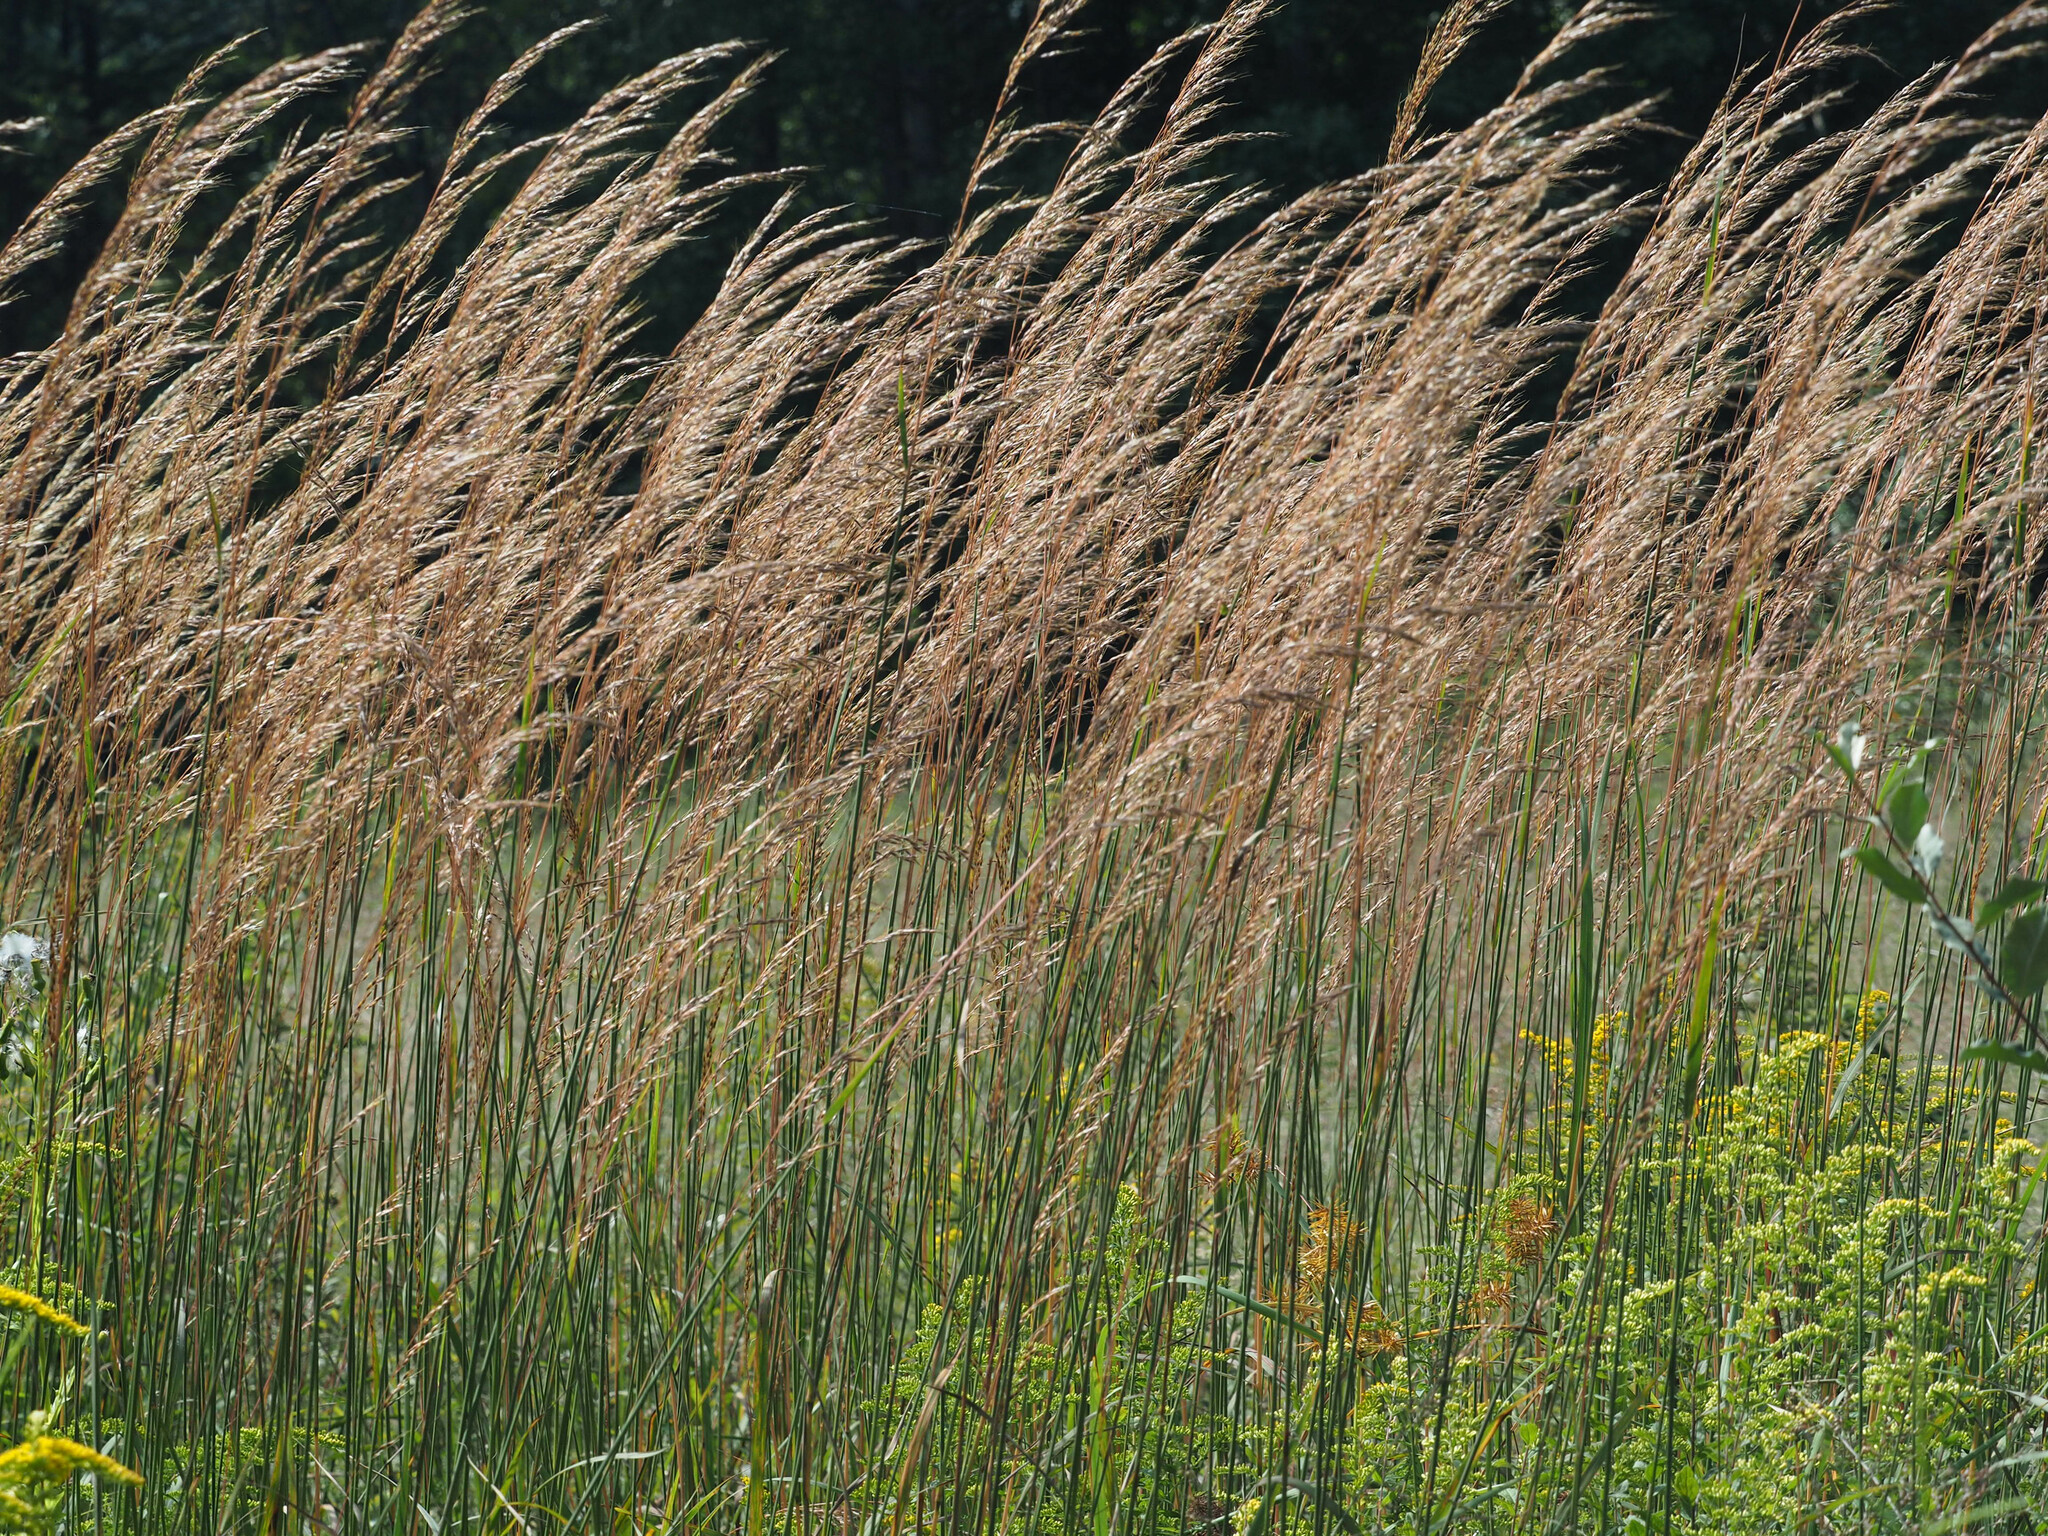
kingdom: Plantae
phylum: Tracheophyta
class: Liliopsida
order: Poales
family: Poaceae
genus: Sorghastrum
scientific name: Sorghastrum nutans
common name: Indian grass
